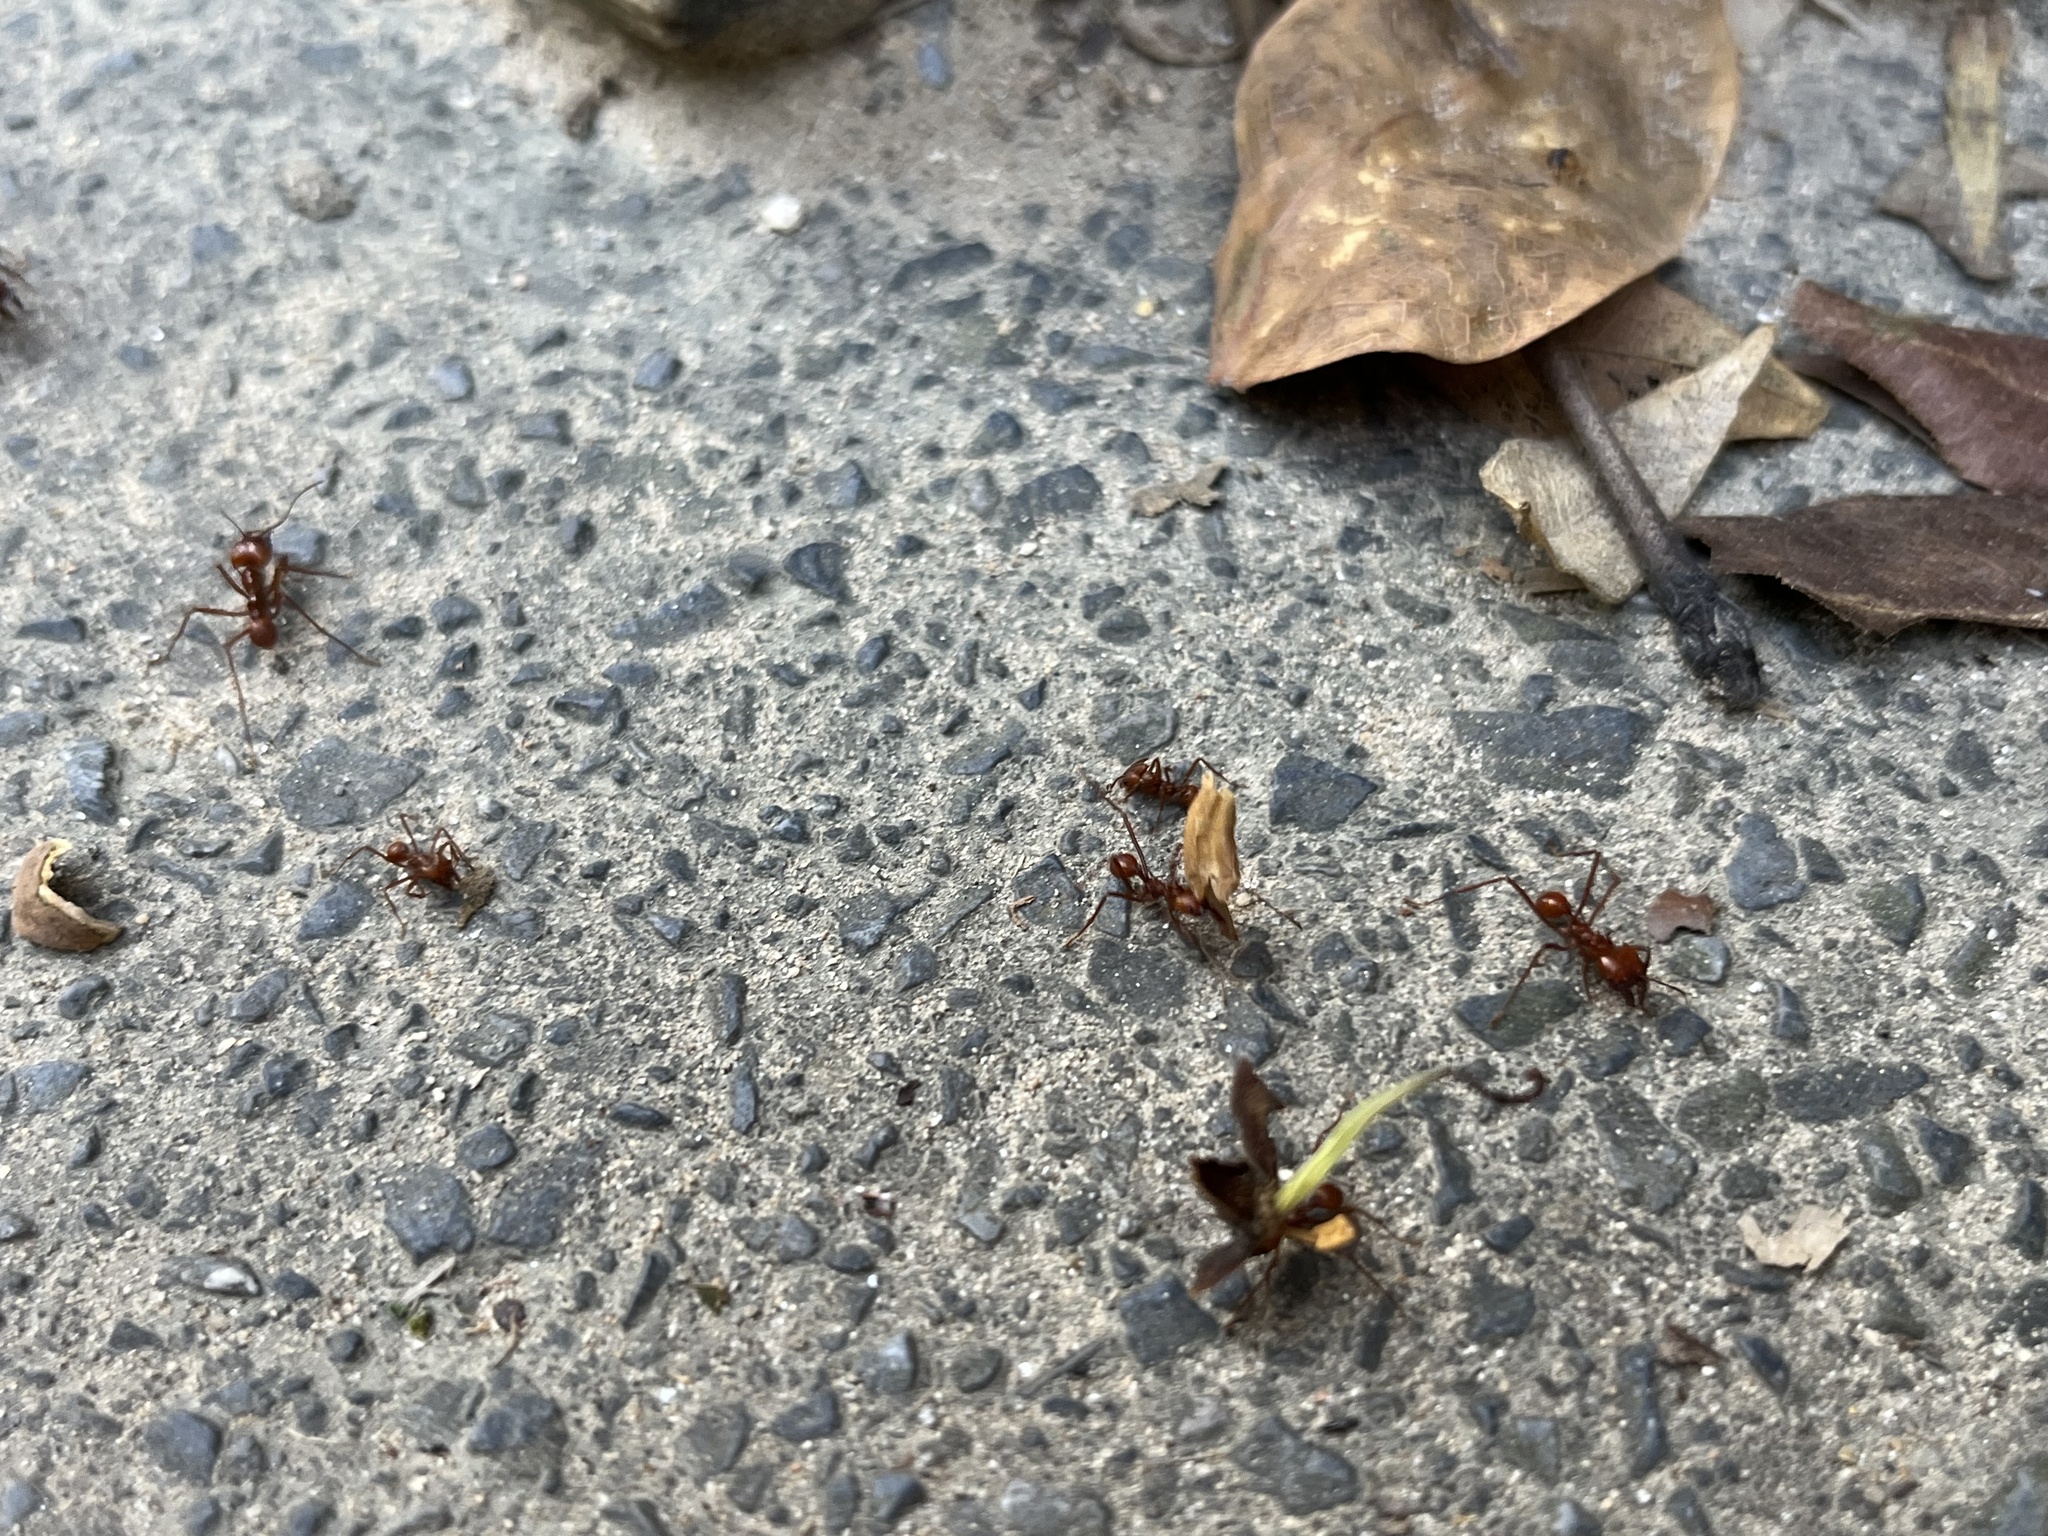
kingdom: Animalia
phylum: Arthropoda
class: Insecta
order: Hymenoptera
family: Formicidae
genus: Atta
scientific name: Atta cephalotes
